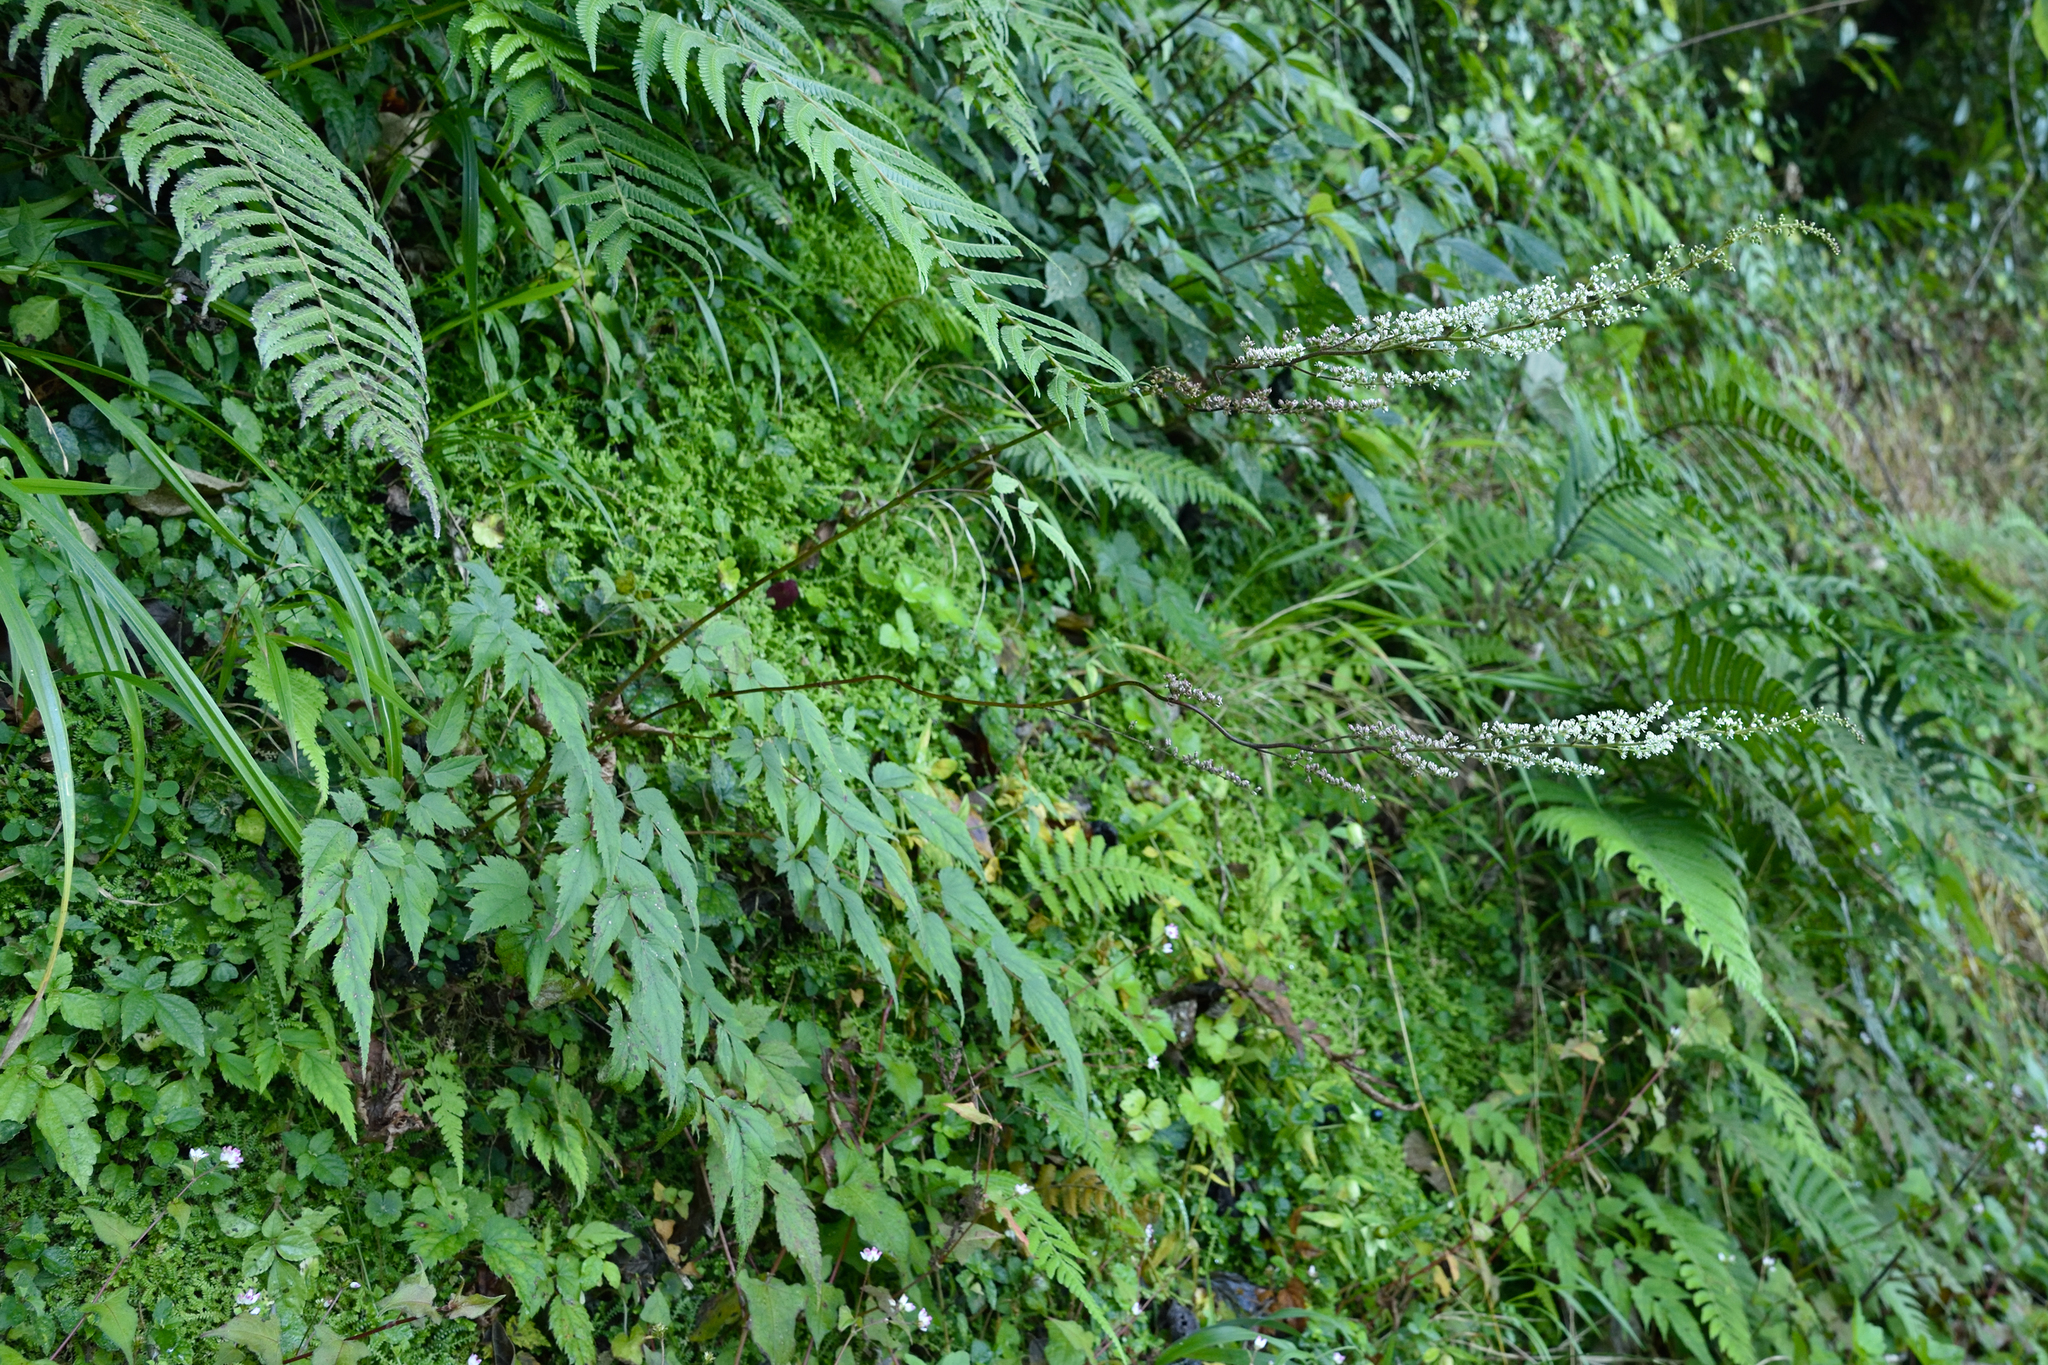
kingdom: Plantae
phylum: Tracheophyta
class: Magnoliopsida
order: Saxifragales
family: Saxifragaceae
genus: Astilbe
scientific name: Astilbe longicarpa
